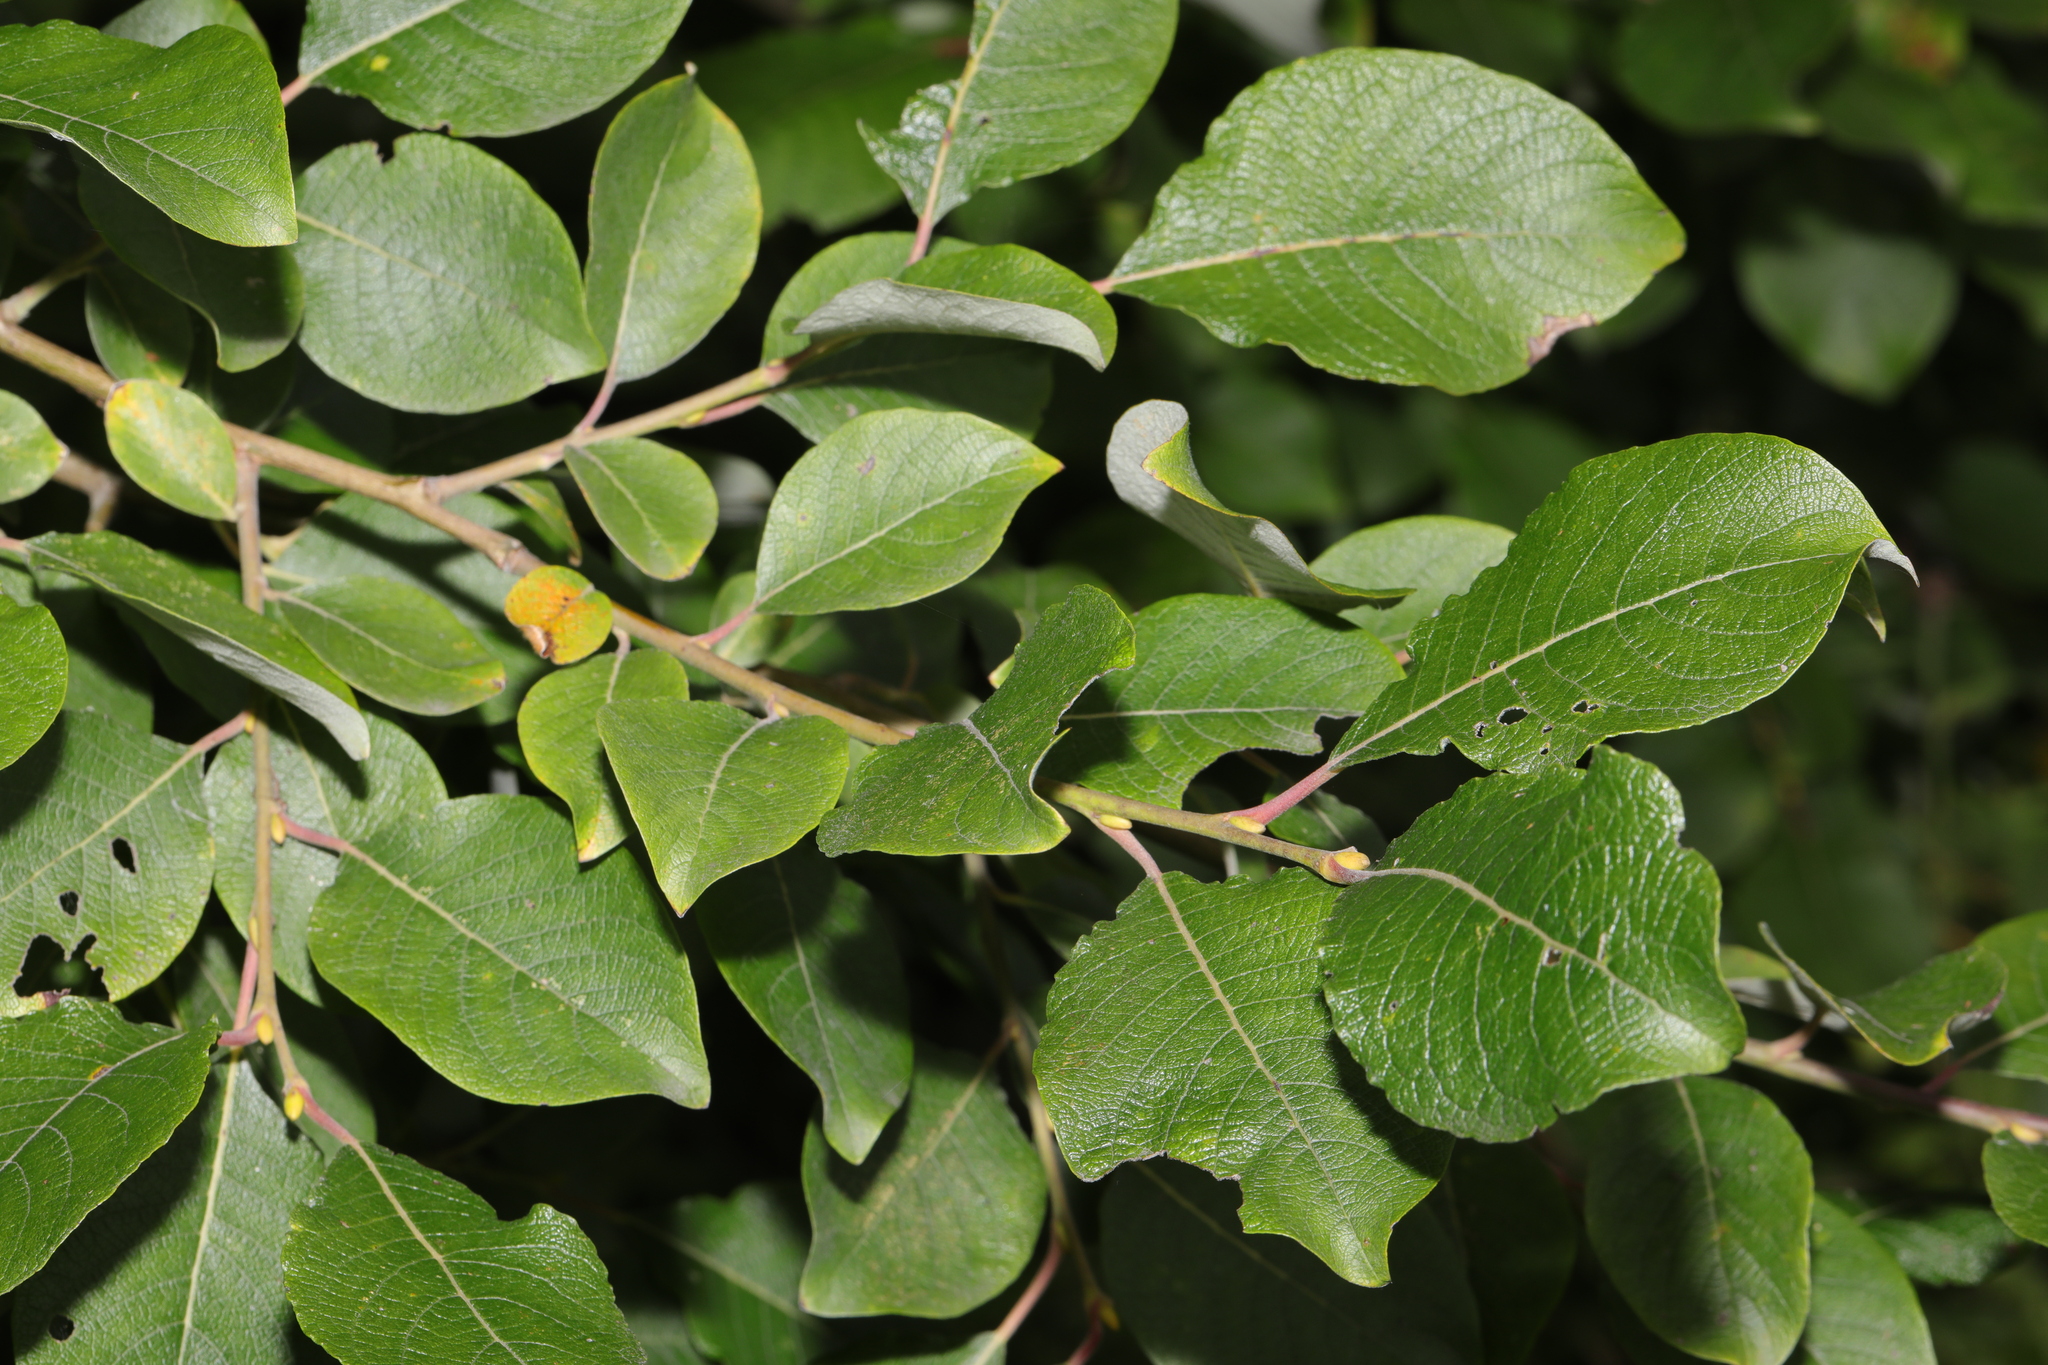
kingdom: Plantae
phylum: Tracheophyta
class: Magnoliopsida
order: Malpighiales
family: Salicaceae
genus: Salix
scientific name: Salix caprea
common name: Goat willow
